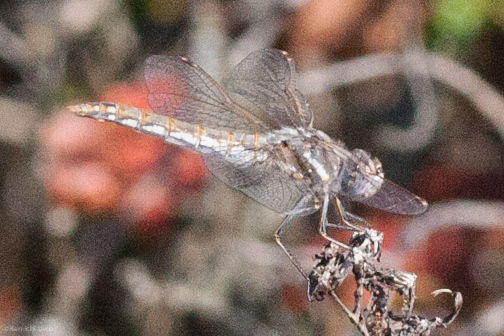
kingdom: Animalia
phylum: Arthropoda
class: Insecta
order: Odonata
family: Libellulidae
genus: Sympetrum
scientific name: Sympetrum corruptum
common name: Variegated meadowhawk
